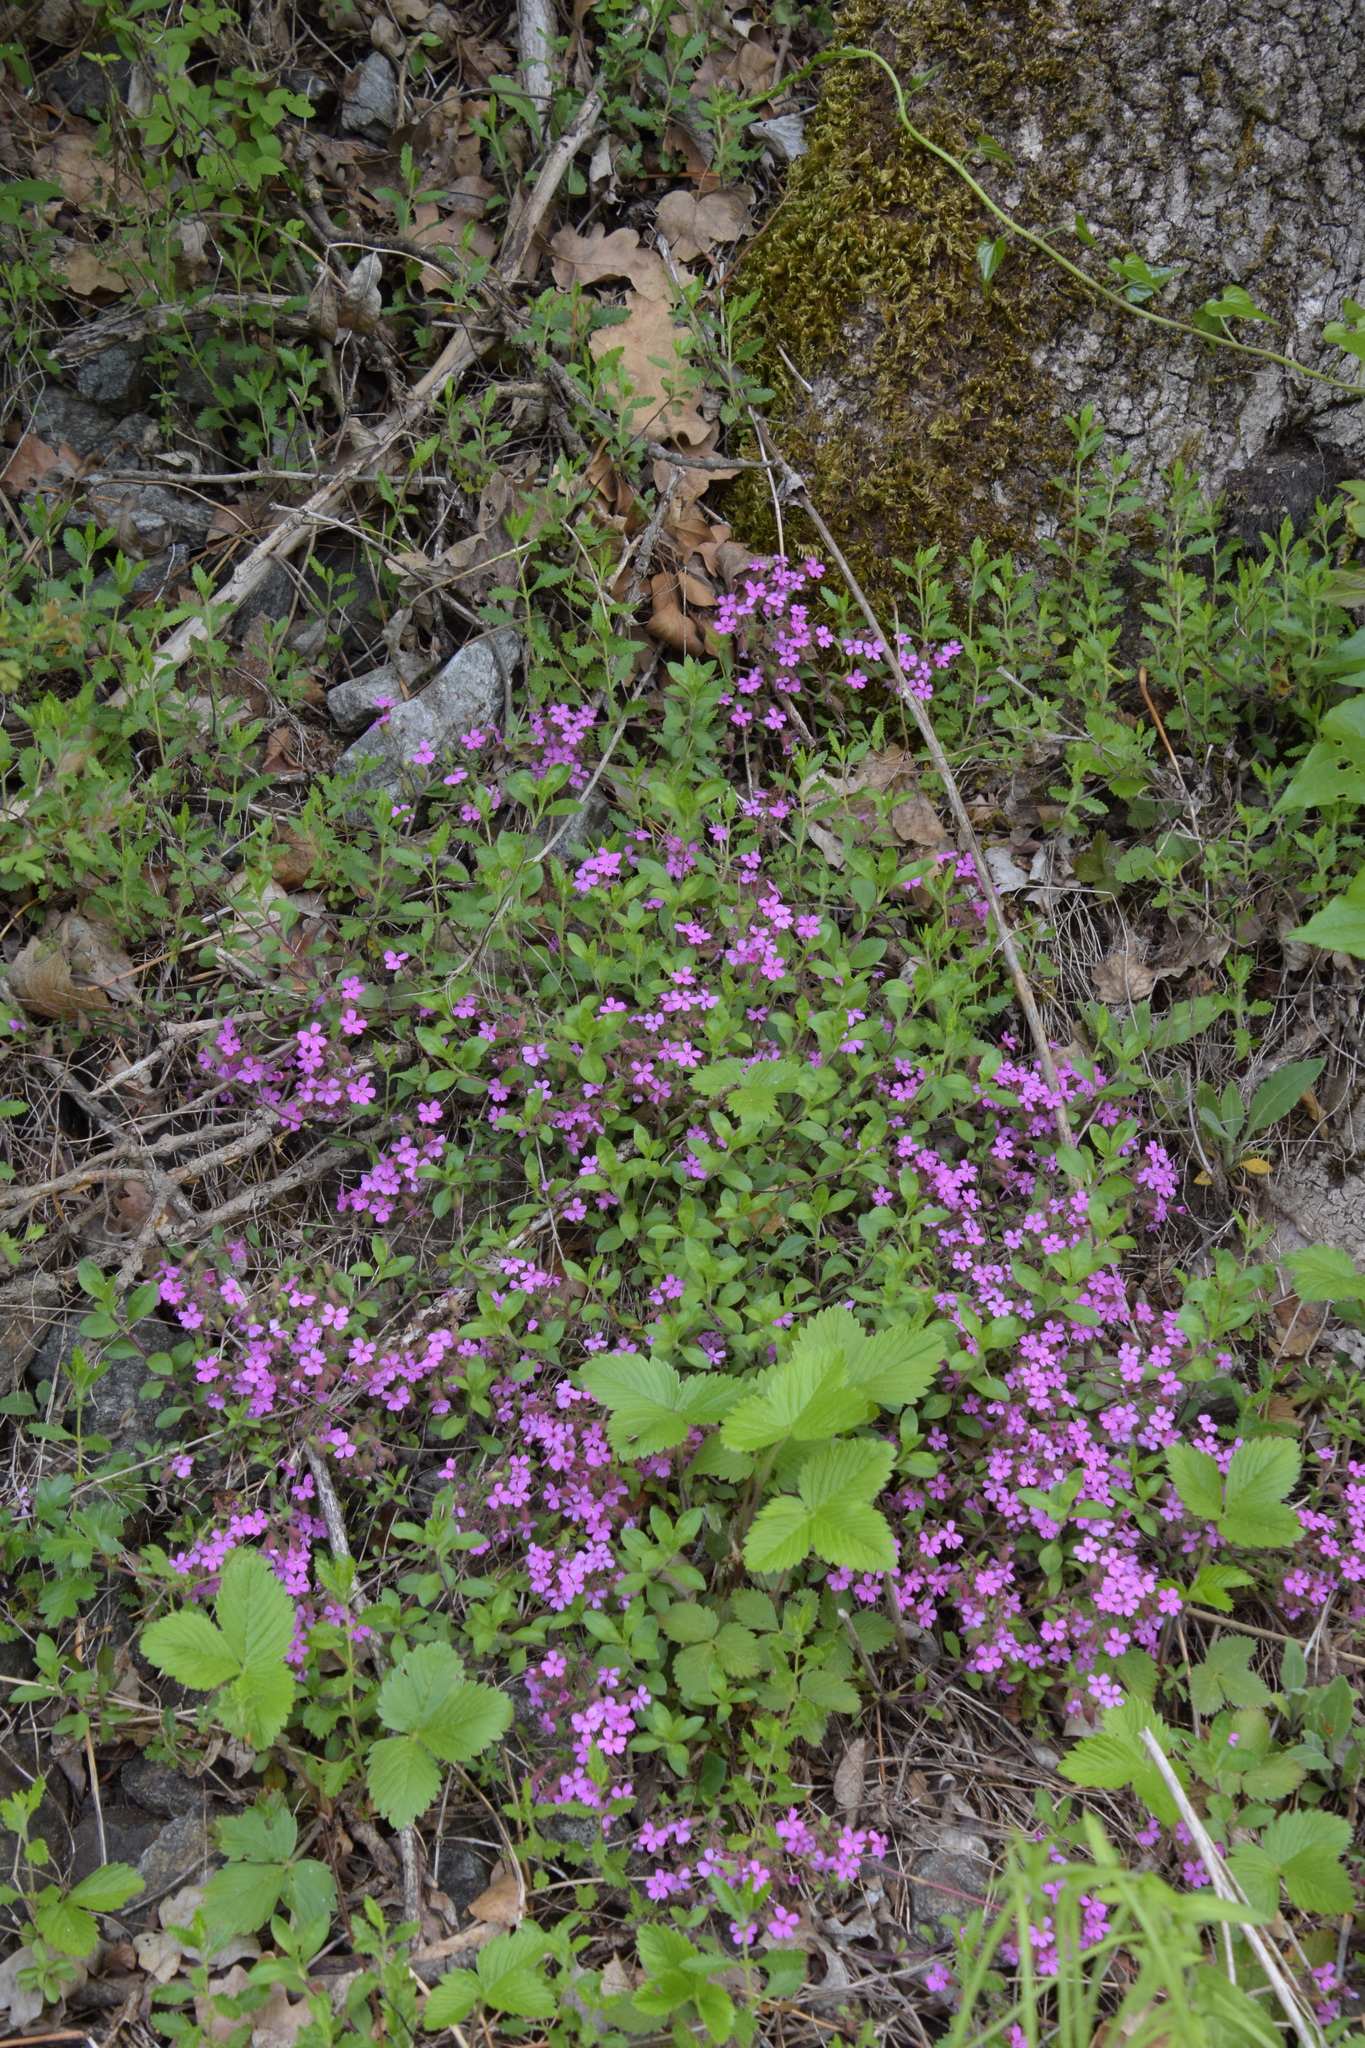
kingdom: Plantae
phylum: Tracheophyta
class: Magnoliopsida
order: Caryophyllales
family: Caryophyllaceae
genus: Saponaria
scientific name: Saponaria ocymoides
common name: Rock soapwort
